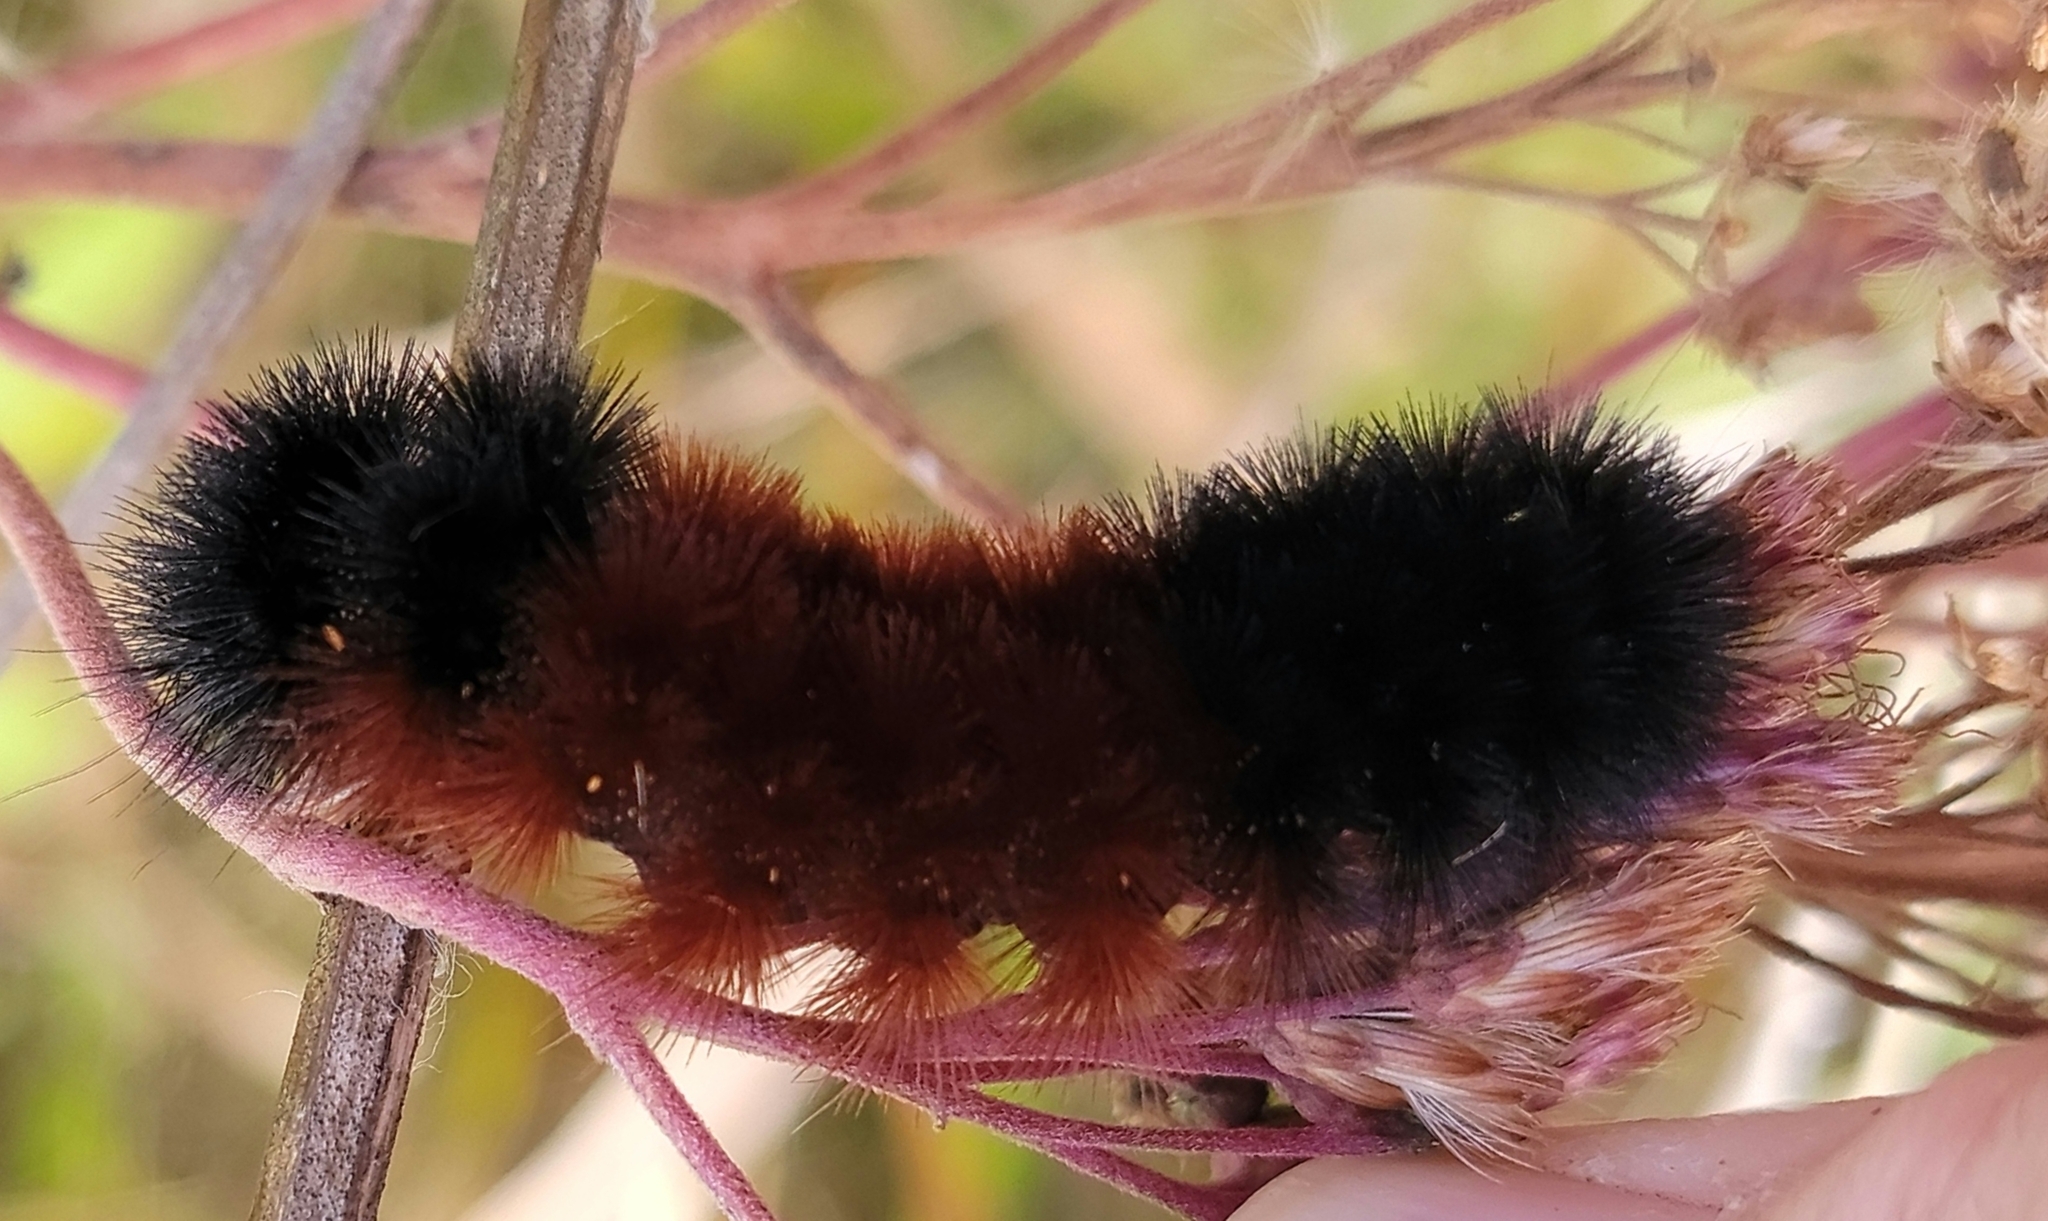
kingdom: Animalia
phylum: Arthropoda
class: Insecta
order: Lepidoptera
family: Erebidae
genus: Pyrrharctia
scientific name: Pyrrharctia isabella
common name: Isabella tiger moth
